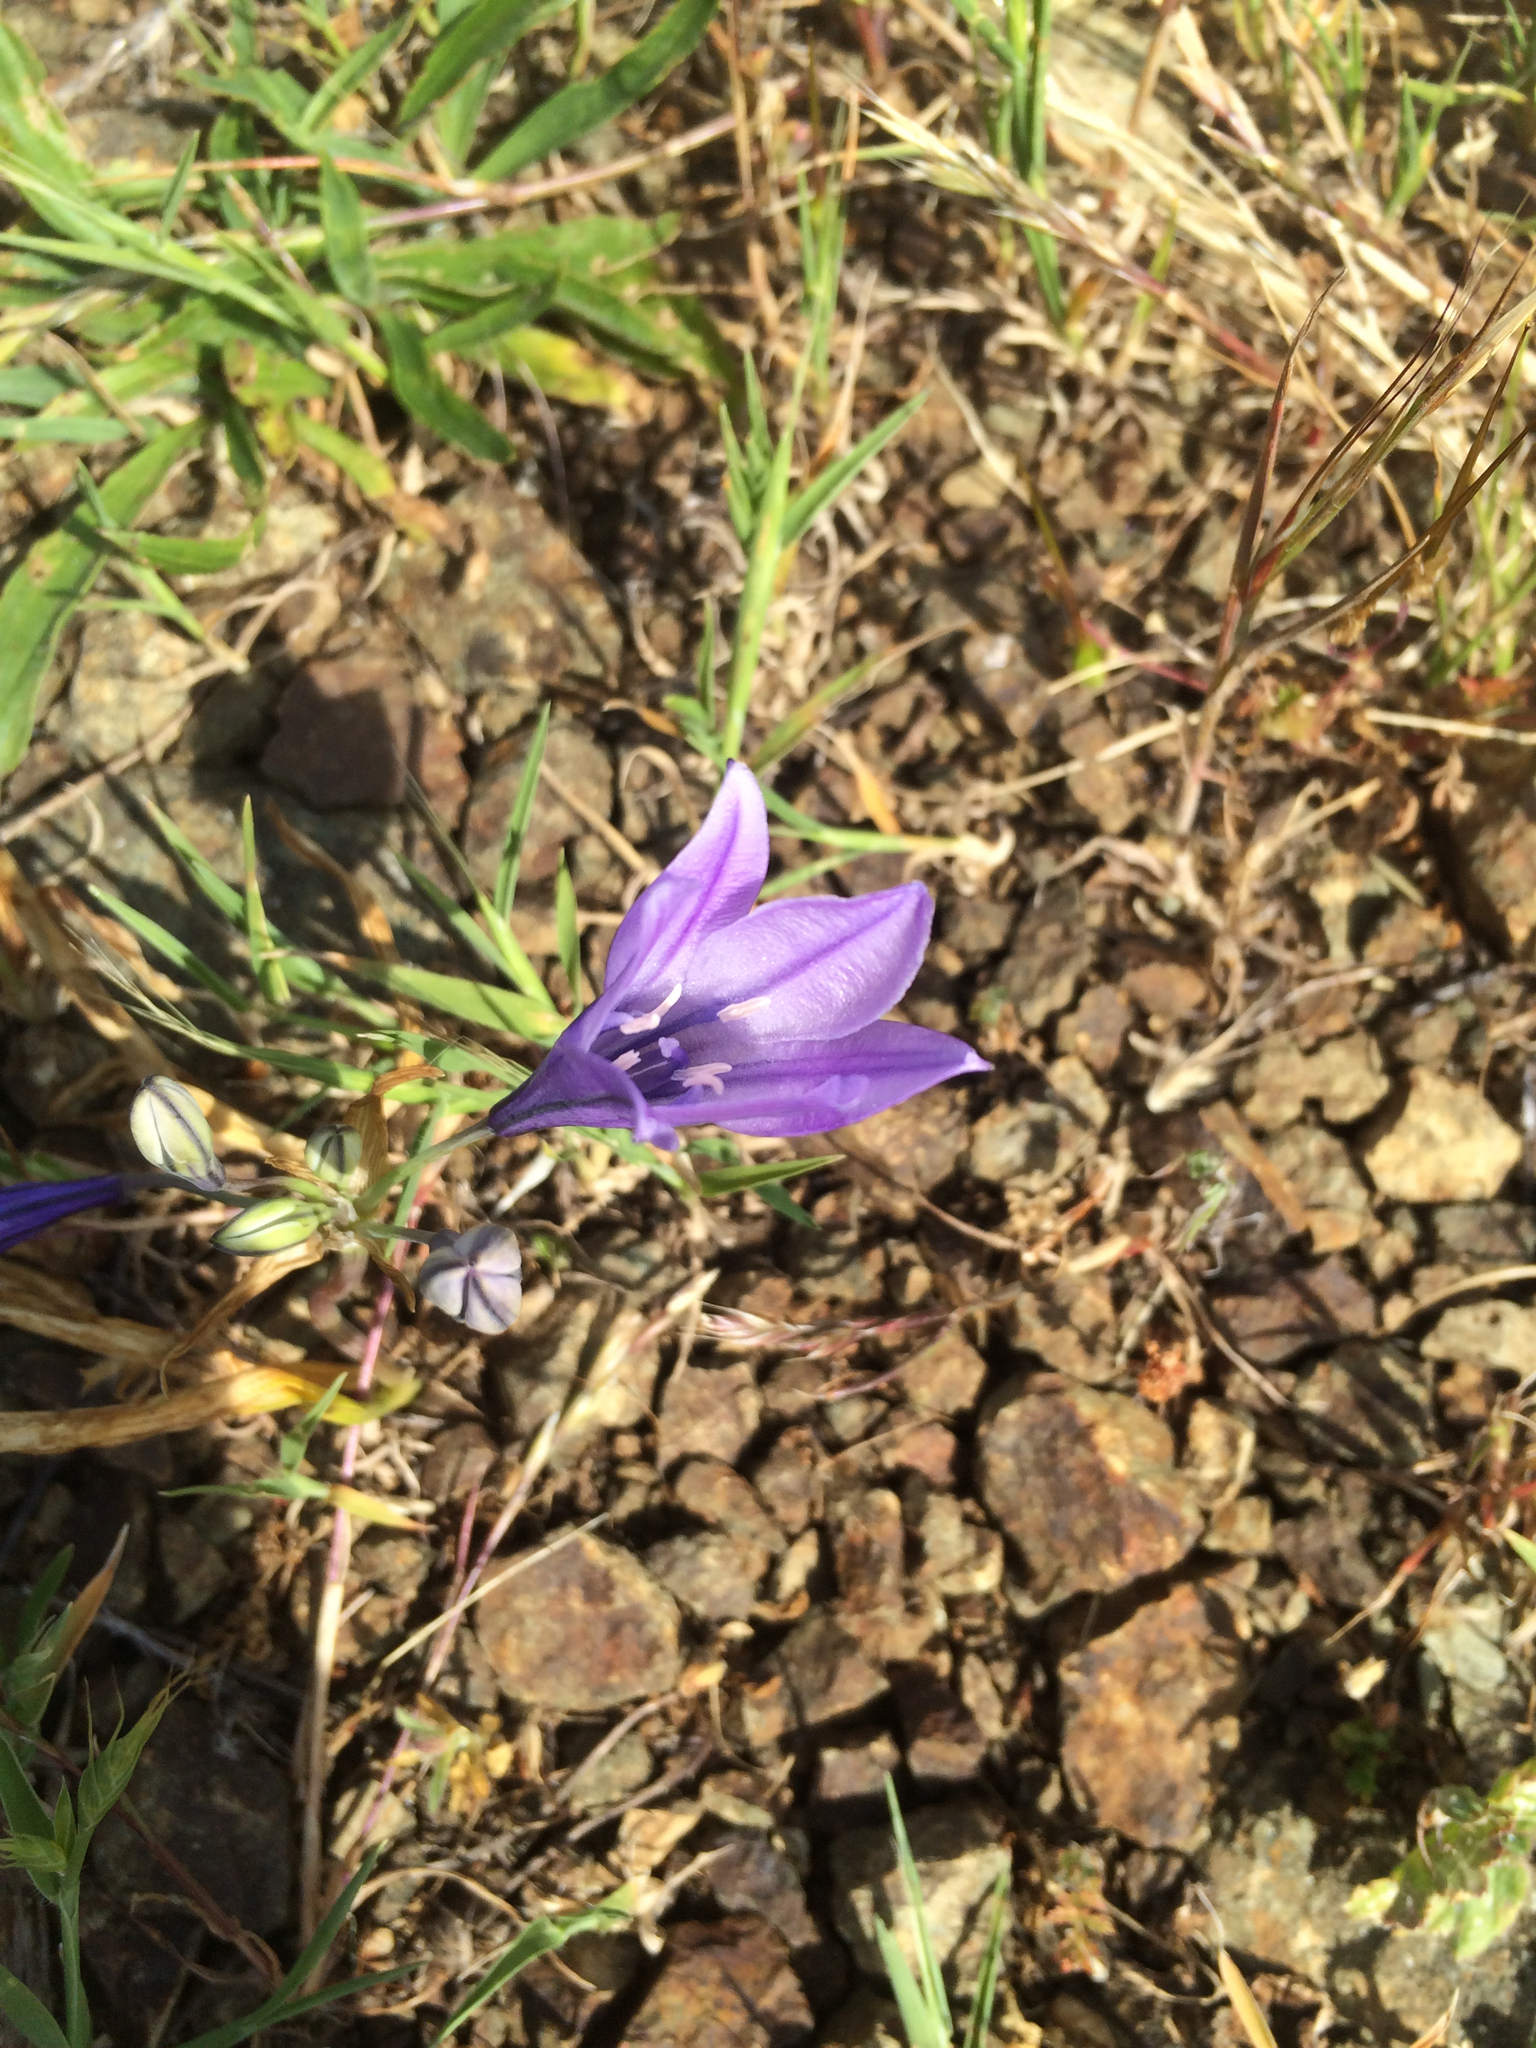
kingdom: Plantae
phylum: Tracheophyta
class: Liliopsida
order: Asparagales
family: Asparagaceae
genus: Triteleia
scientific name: Triteleia laxa
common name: Triplet-lily
